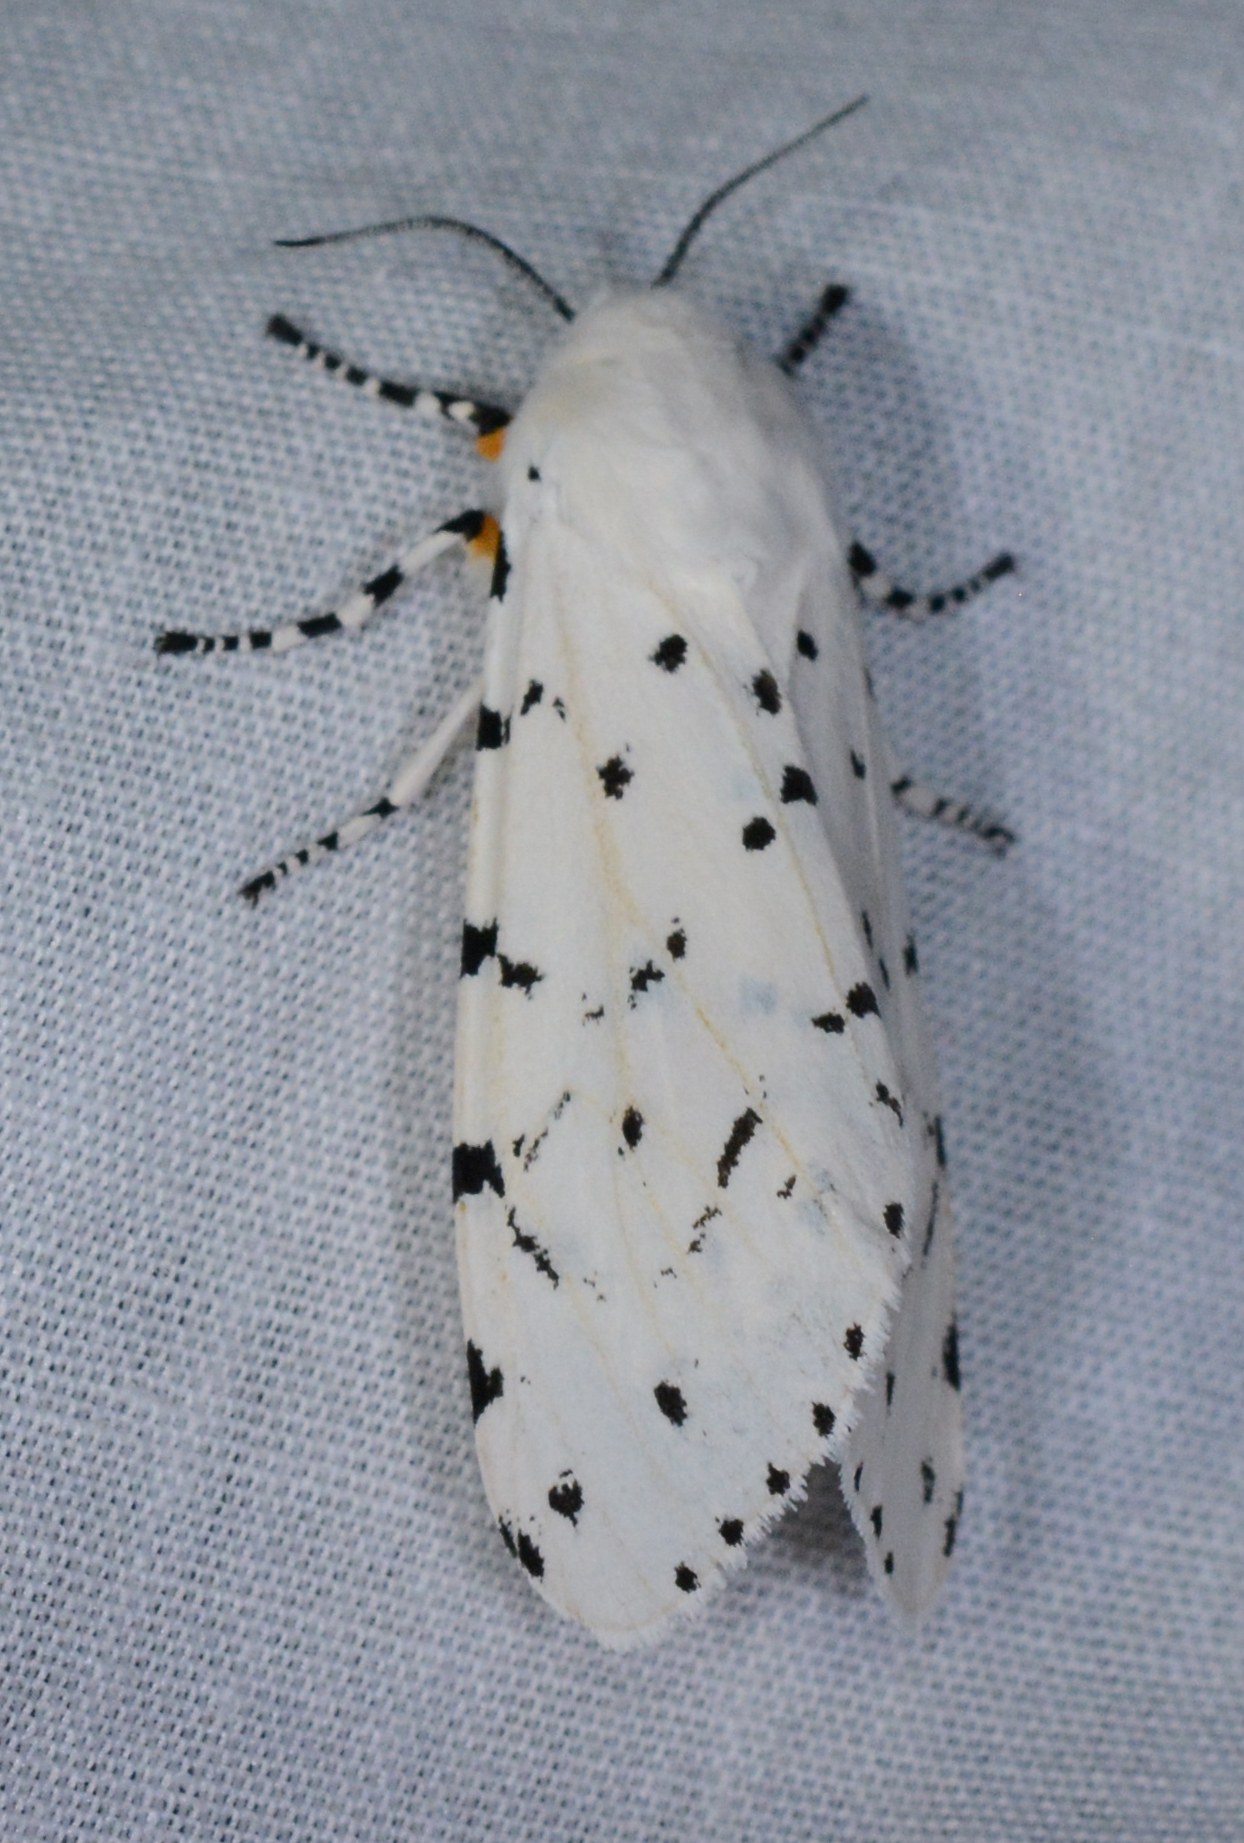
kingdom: Animalia
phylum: Arthropoda
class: Insecta
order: Lepidoptera
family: Erebidae
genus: Estigmene
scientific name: Estigmene acrea
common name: Salt marsh moth
